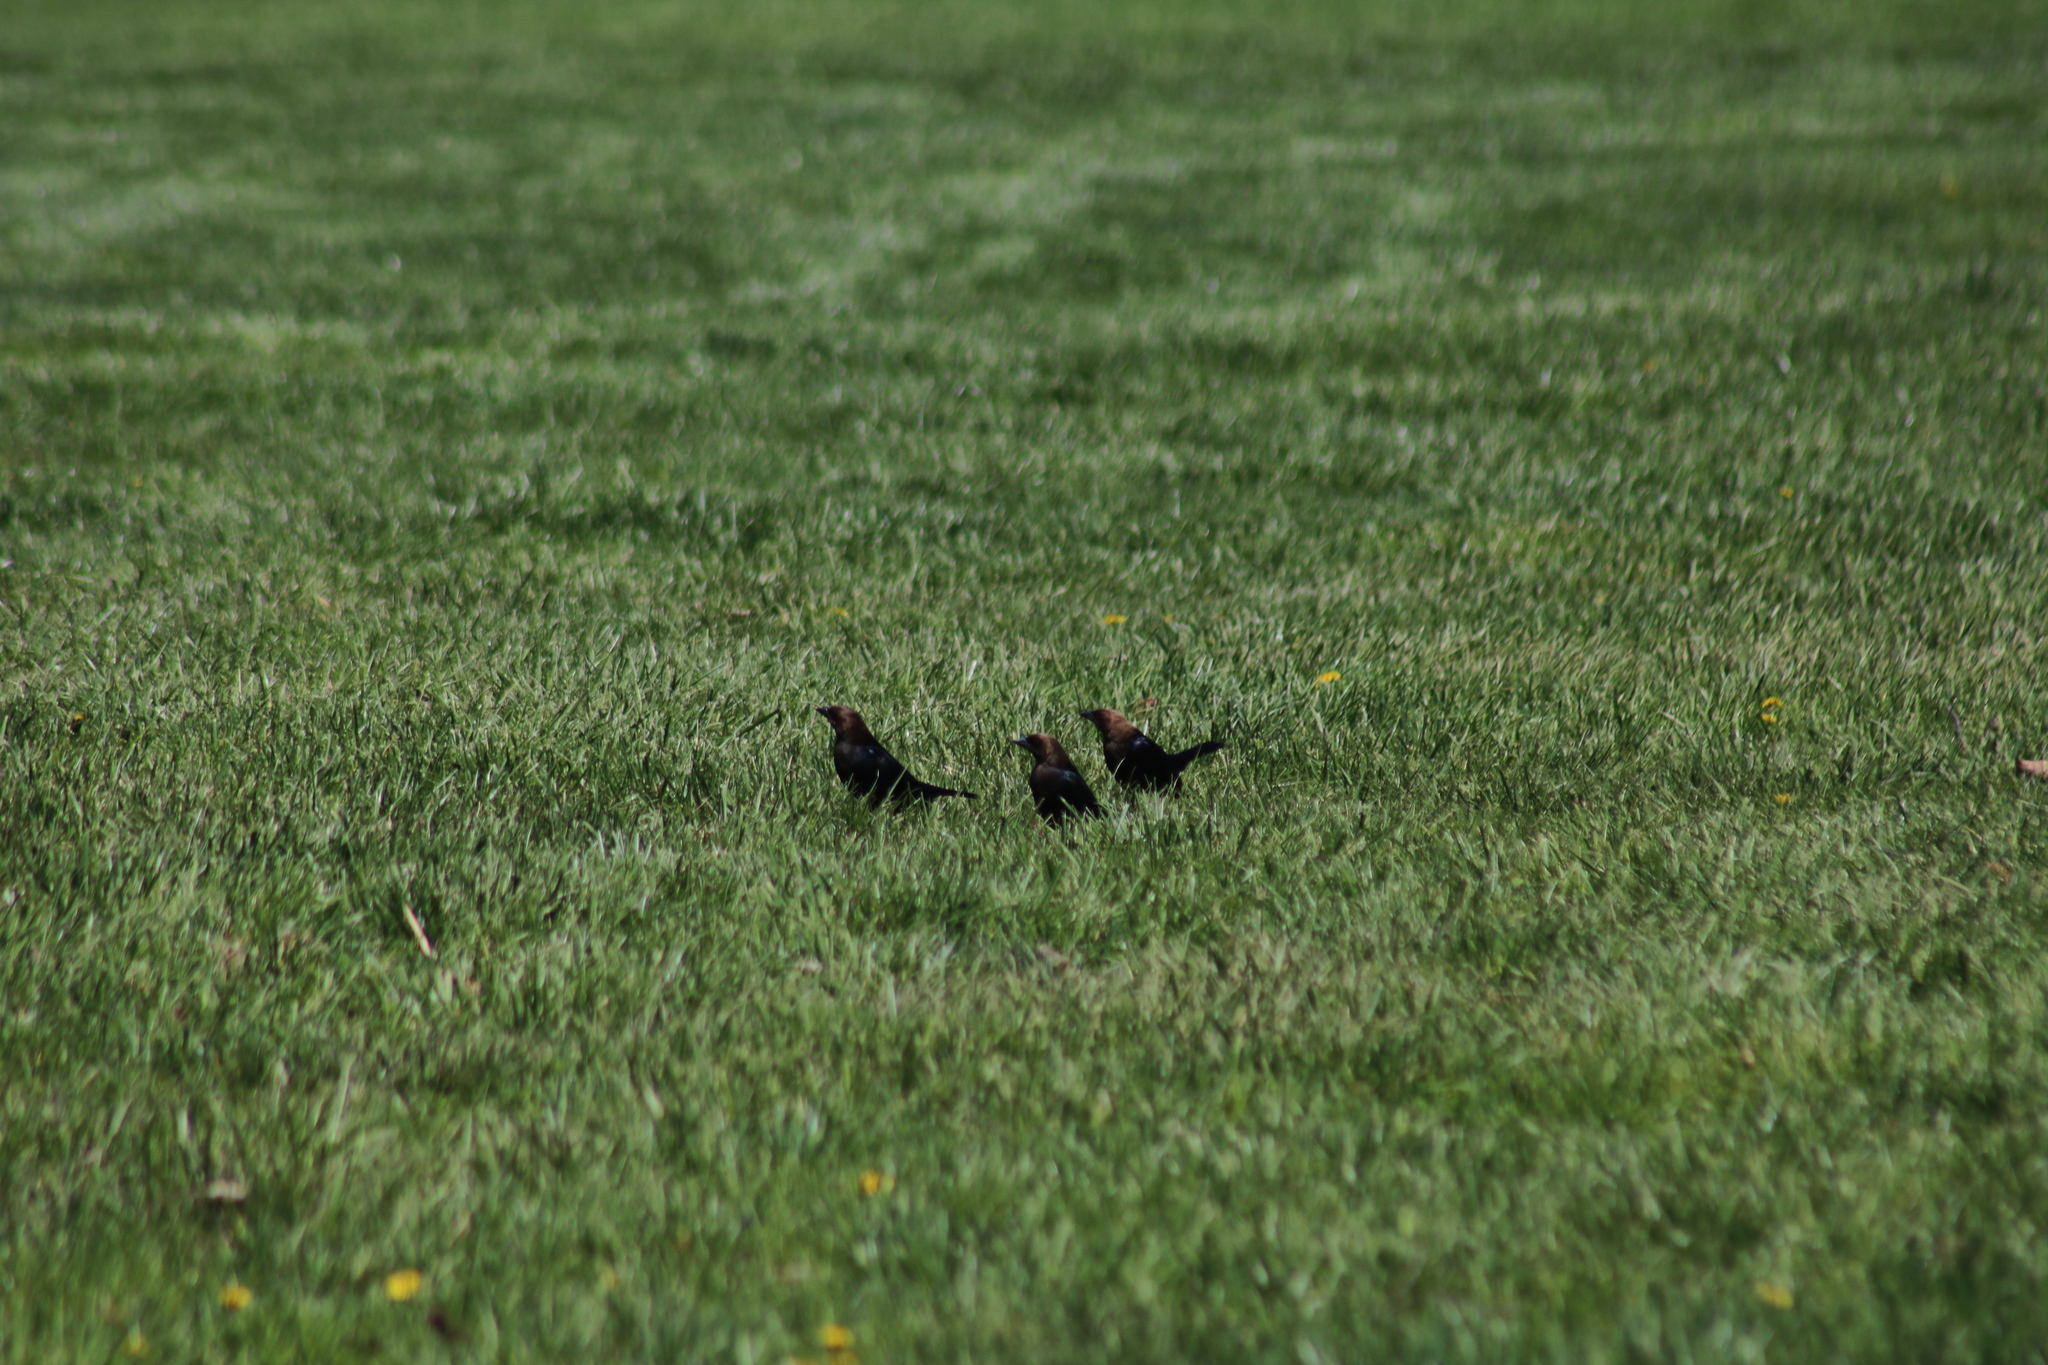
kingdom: Animalia
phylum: Chordata
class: Aves
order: Passeriformes
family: Icteridae
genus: Molothrus
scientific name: Molothrus ater
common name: Brown-headed cowbird
